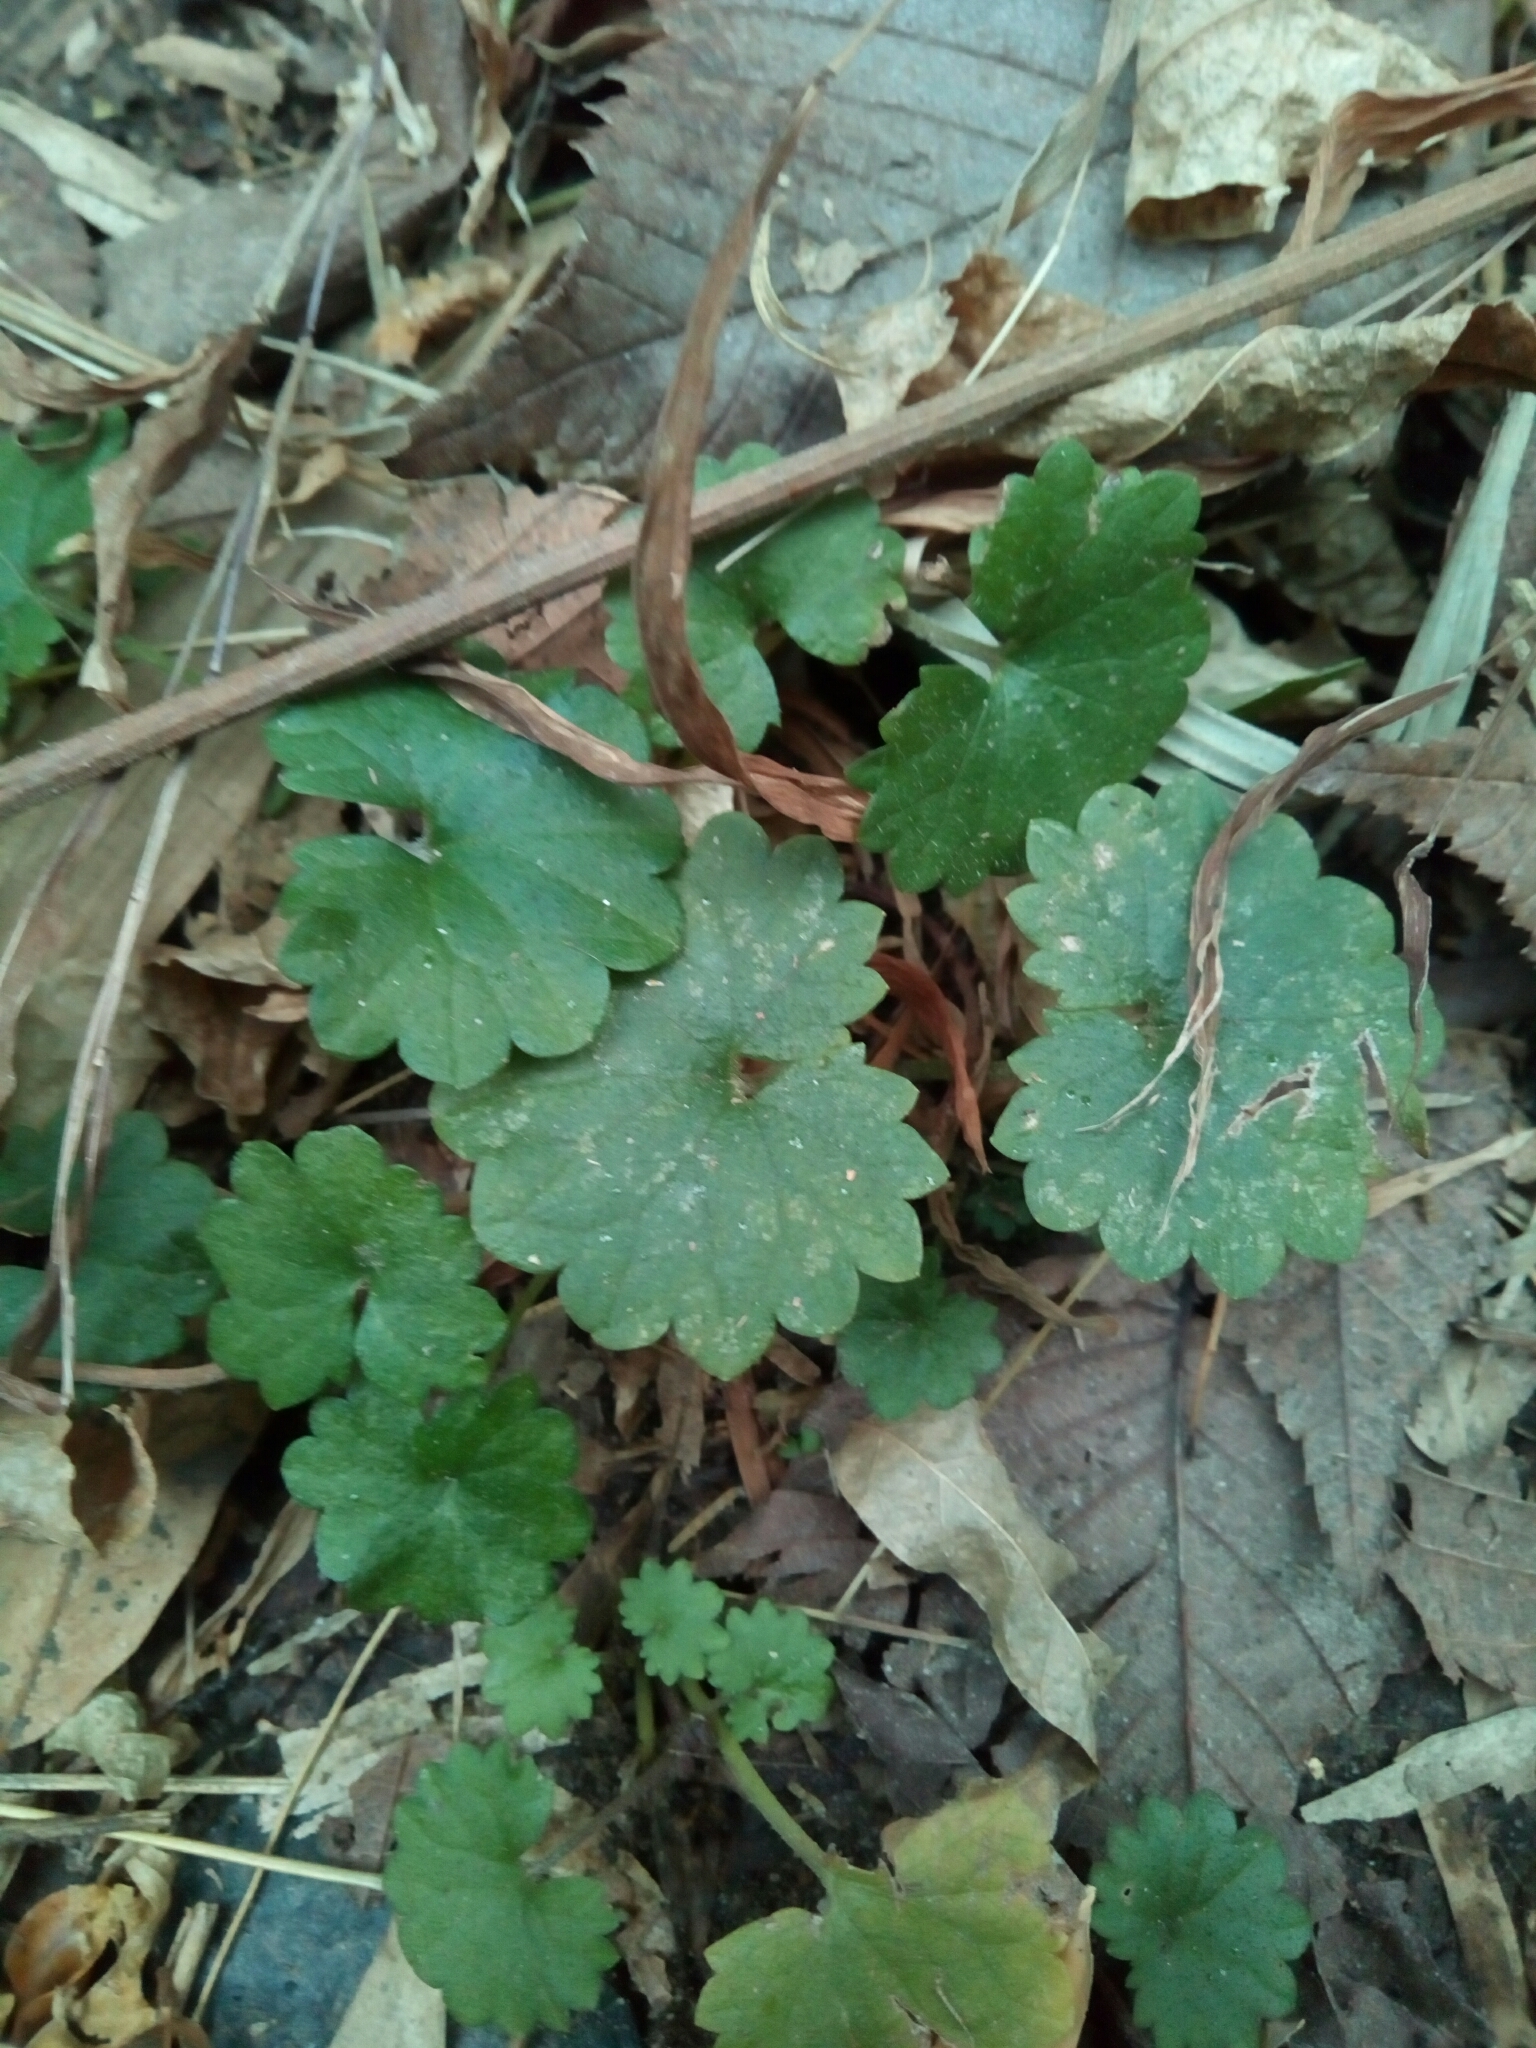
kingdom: Plantae
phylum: Tracheophyta
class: Magnoliopsida
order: Lamiales
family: Lamiaceae
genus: Glechoma
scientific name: Glechoma hederacea
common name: Ground ivy
